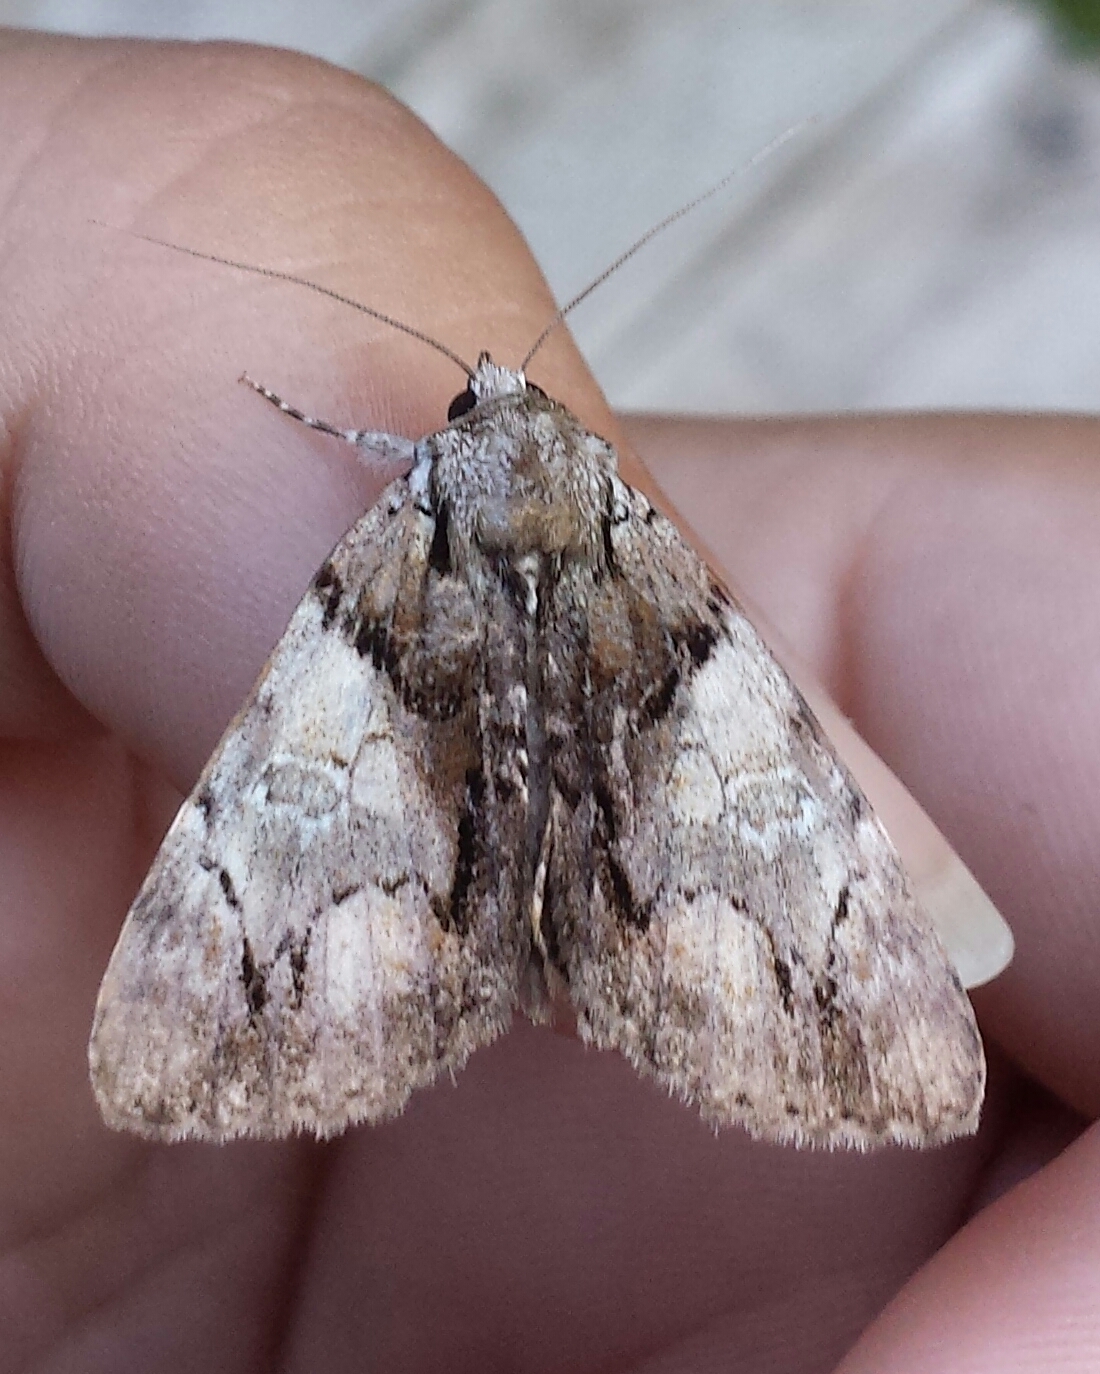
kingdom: Animalia
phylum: Arthropoda
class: Insecta
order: Lepidoptera
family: Erebidae
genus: Catocala
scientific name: Catocala blandula
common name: Charming underwing
